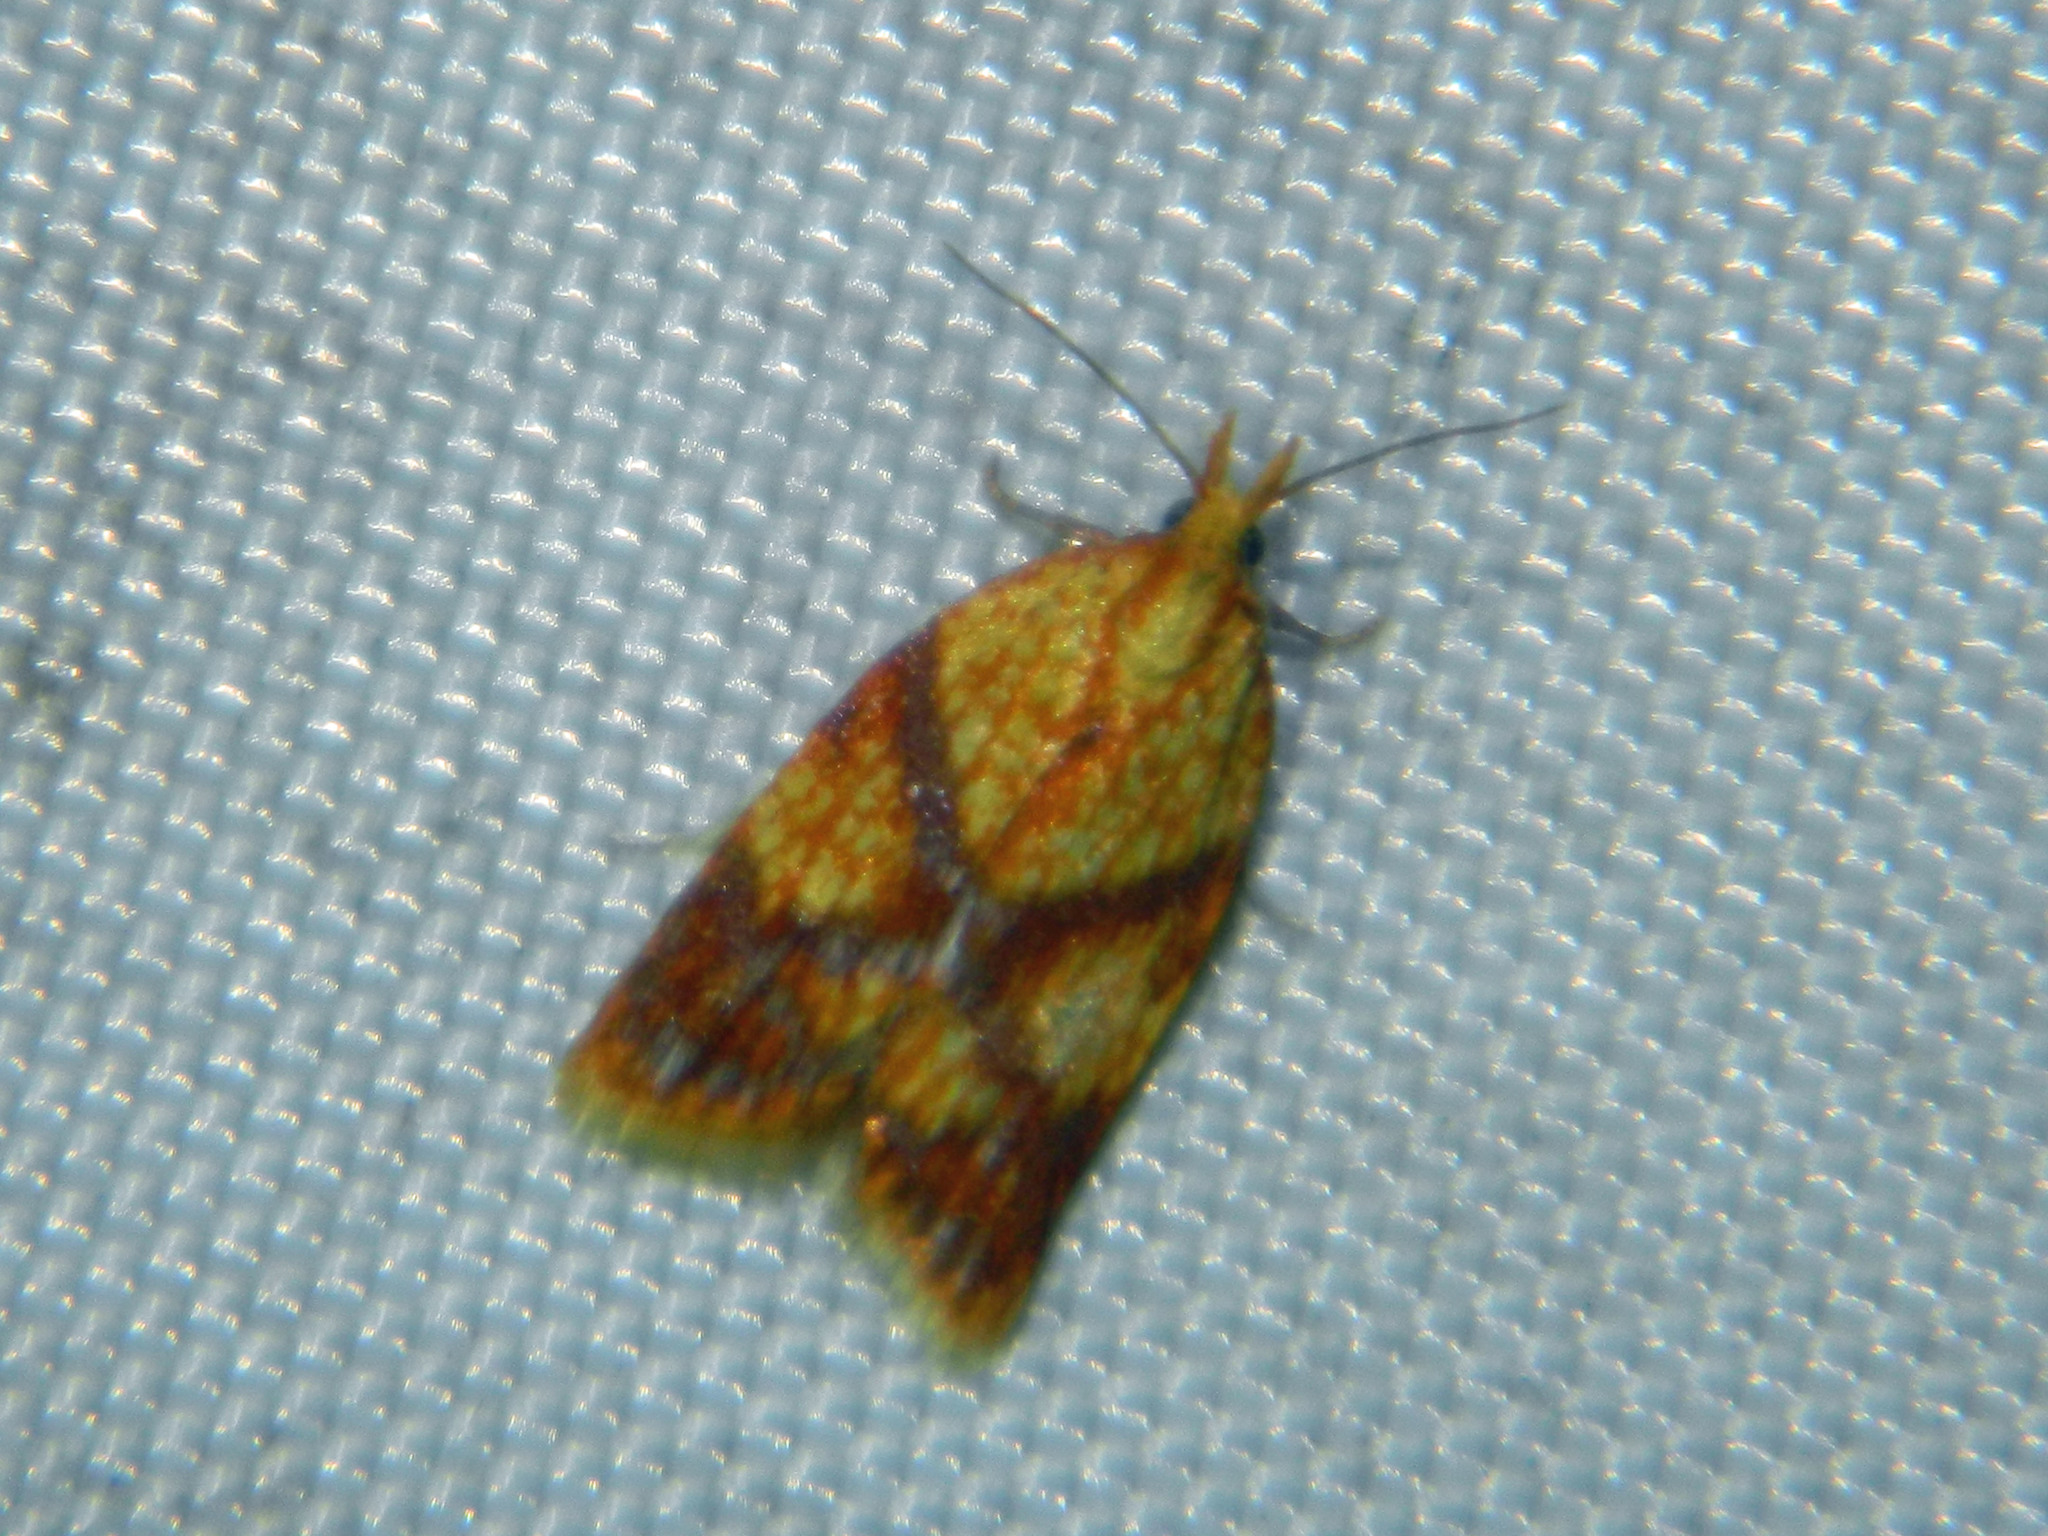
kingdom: Animalia
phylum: Arthropoda
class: Insecta
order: Lepidoptera
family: Tortricidae
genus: Sparganothis
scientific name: Sparganothis lycopodiana
